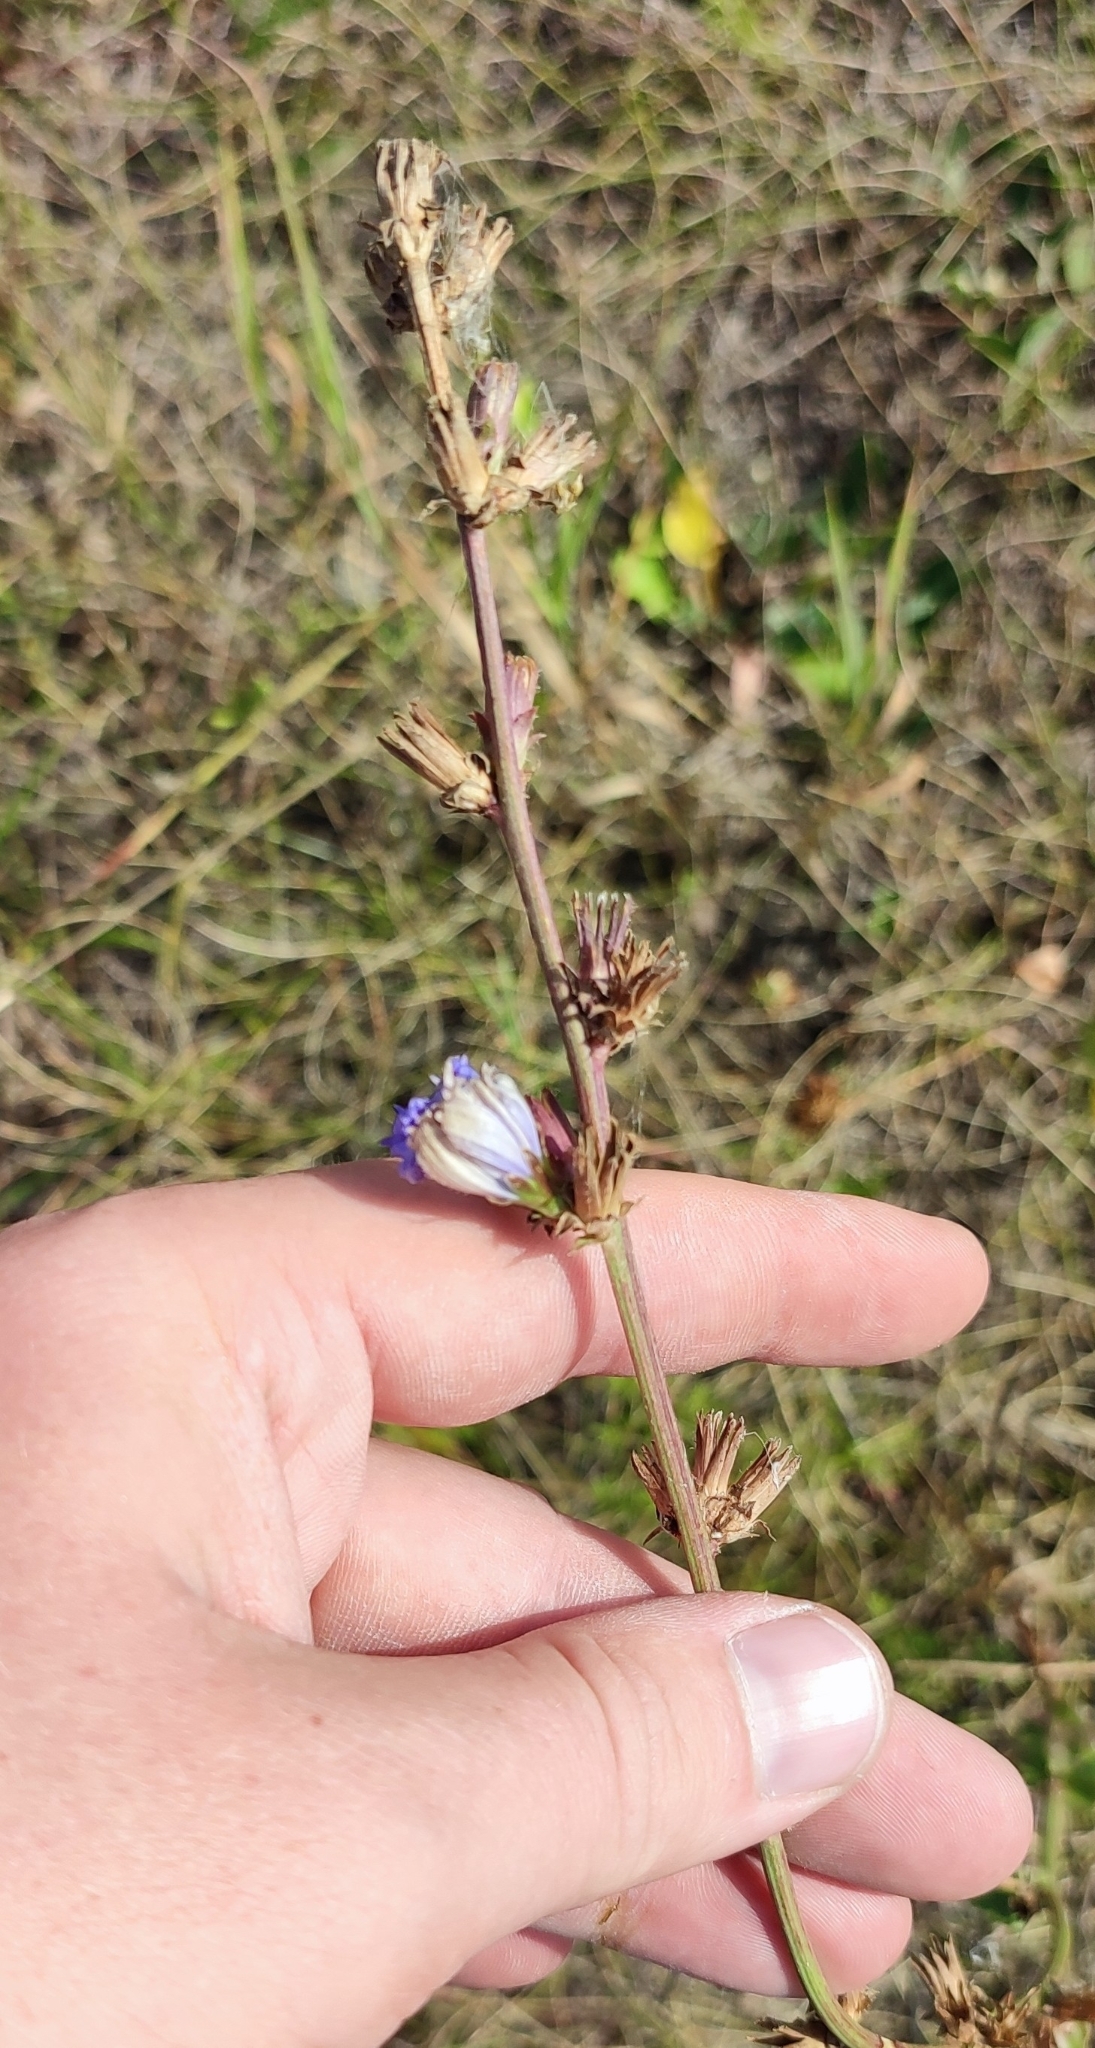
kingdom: Plantae
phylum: Tracheophyta
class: Magnoliopsida
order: Asterales
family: Asteraceae
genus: Cichorium
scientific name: Cichorium intybus
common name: Chicory
